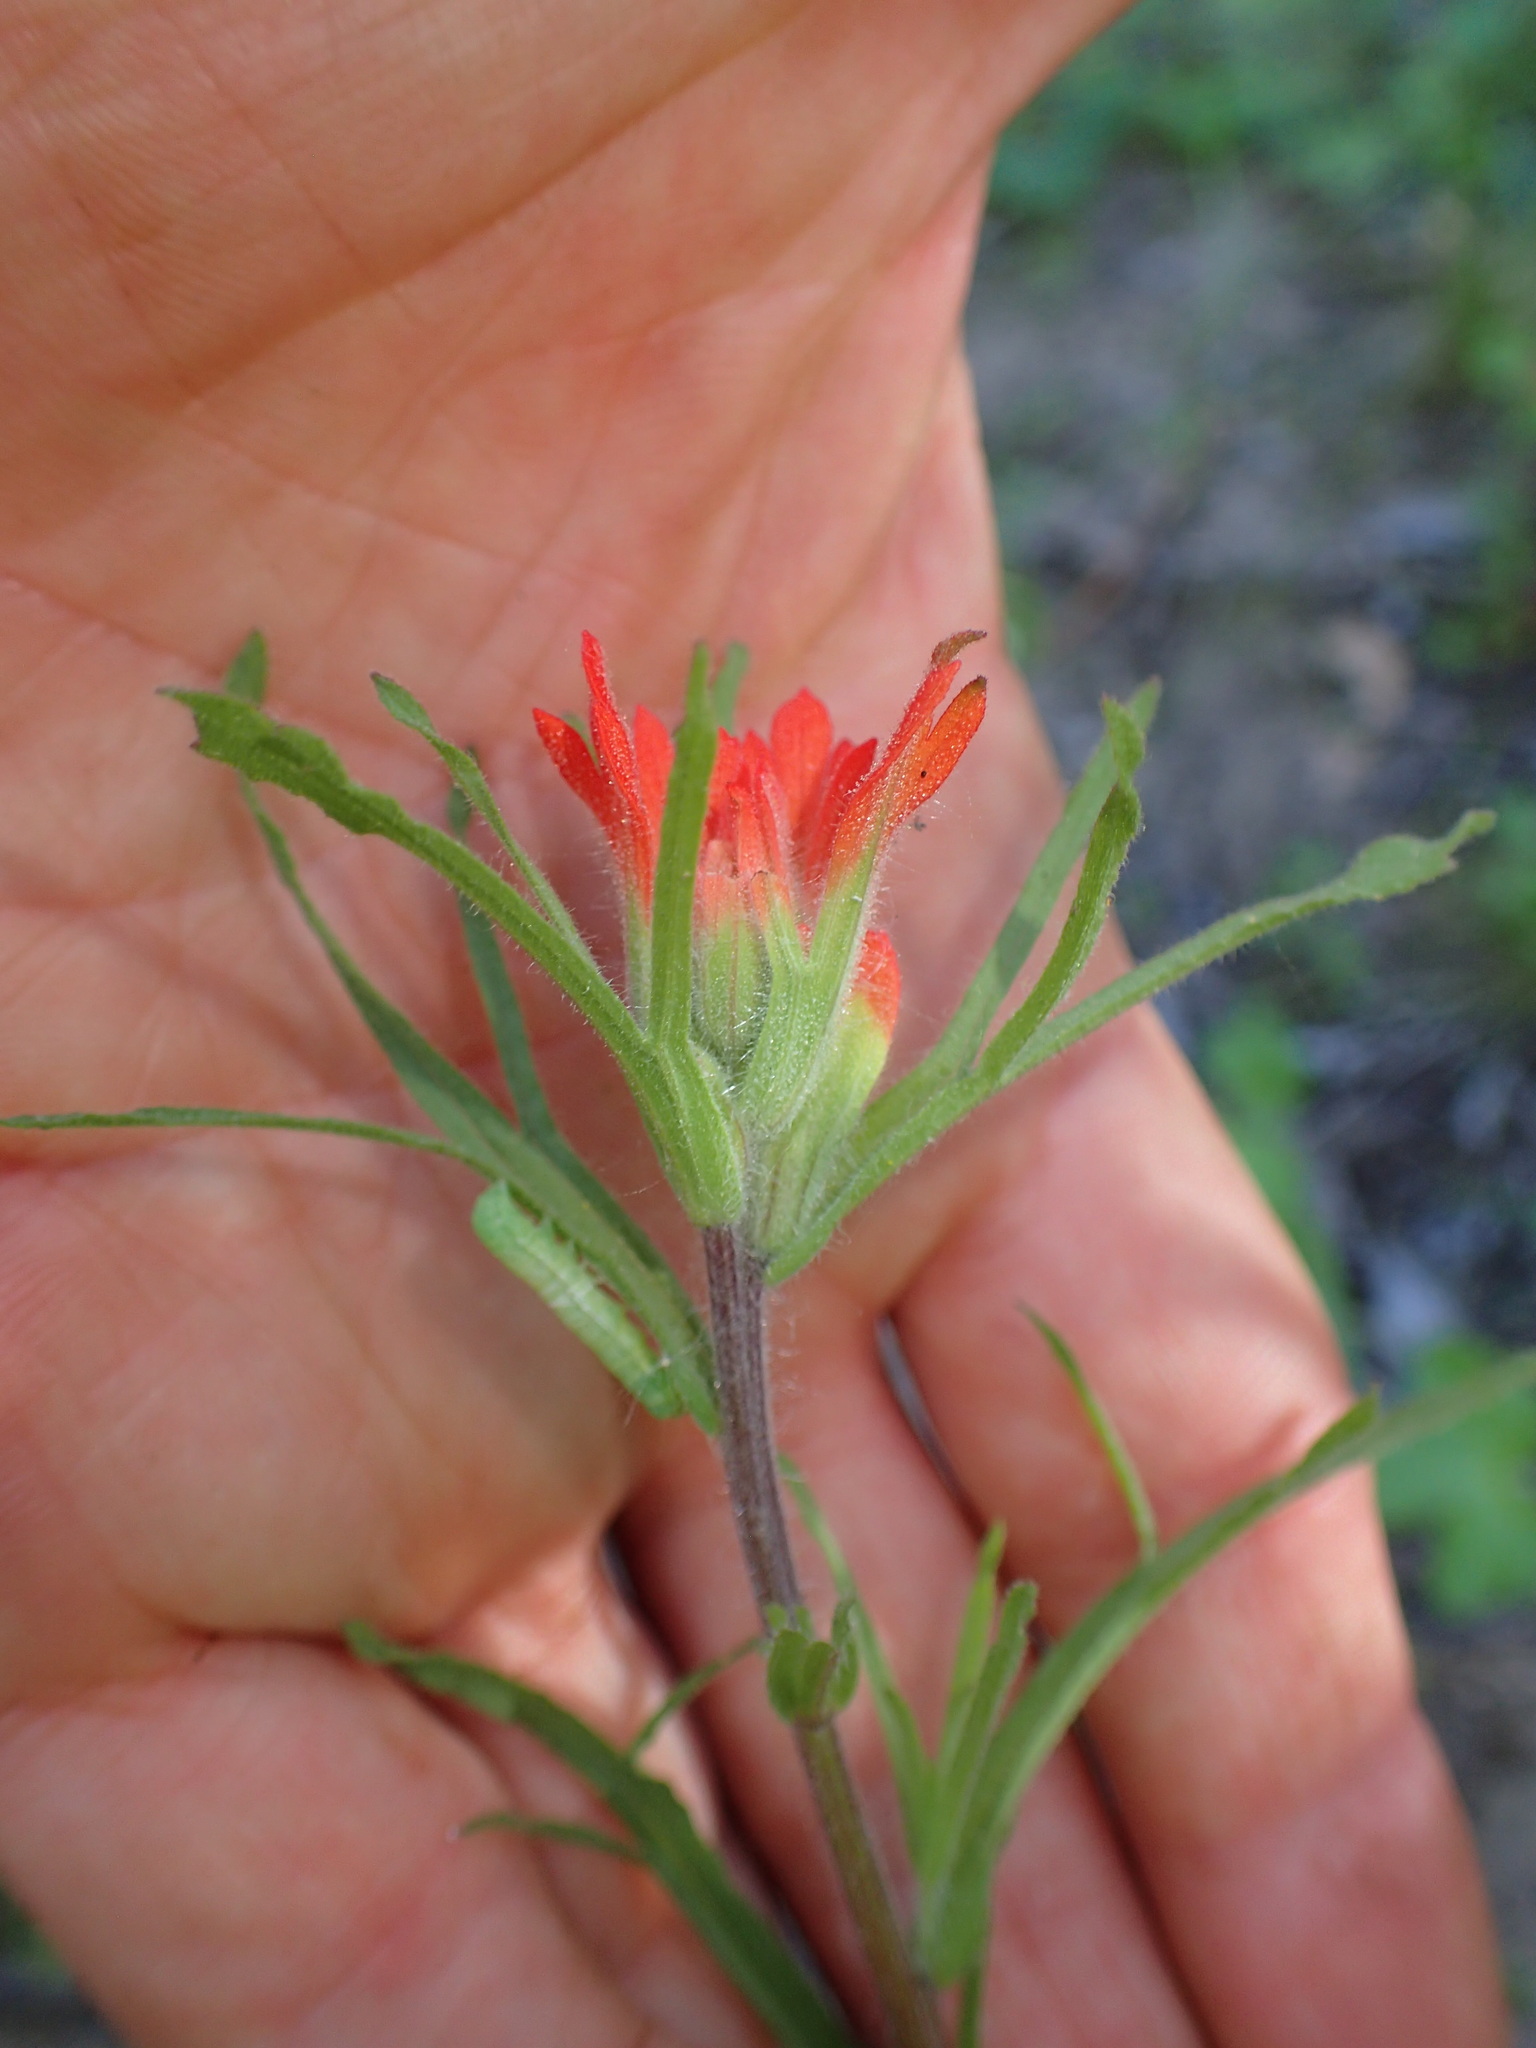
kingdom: Plantae
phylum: Tracheophyta
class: Magnoliopsida
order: Lamiales
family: Orobanchaceae
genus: Castilleja
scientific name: Castilleja affinis
